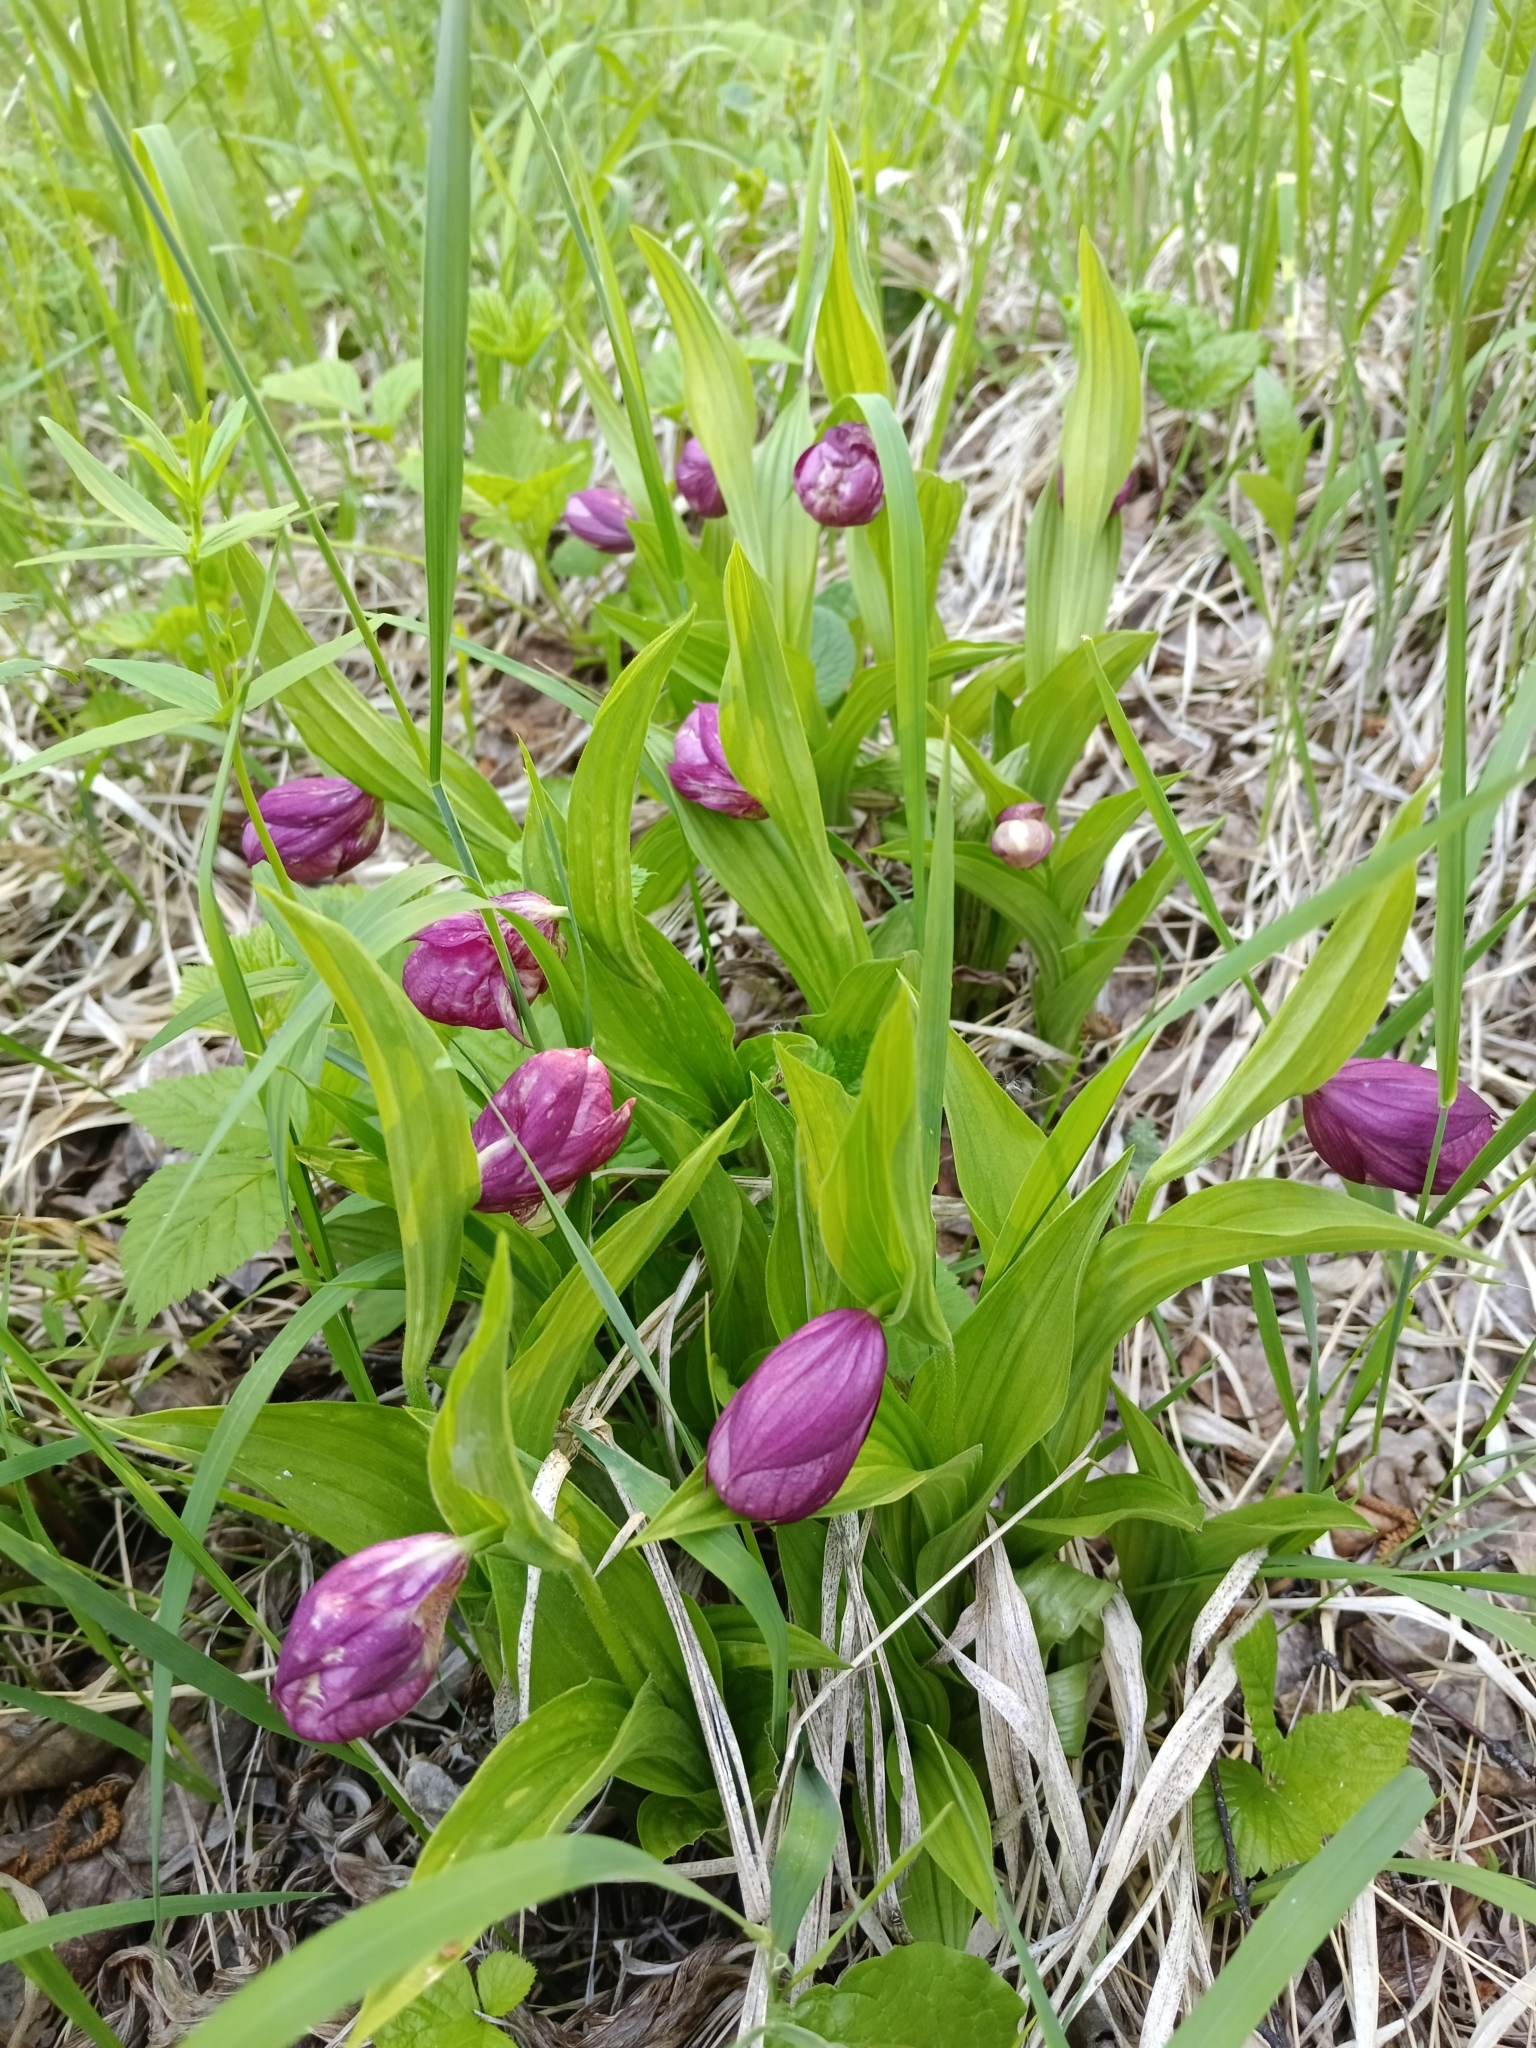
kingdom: Plantae
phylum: Tracheophyta
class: Liliopsida
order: Asparagales
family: Orchidaceae
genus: Cypripedium
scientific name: Cypripedium macranthos
